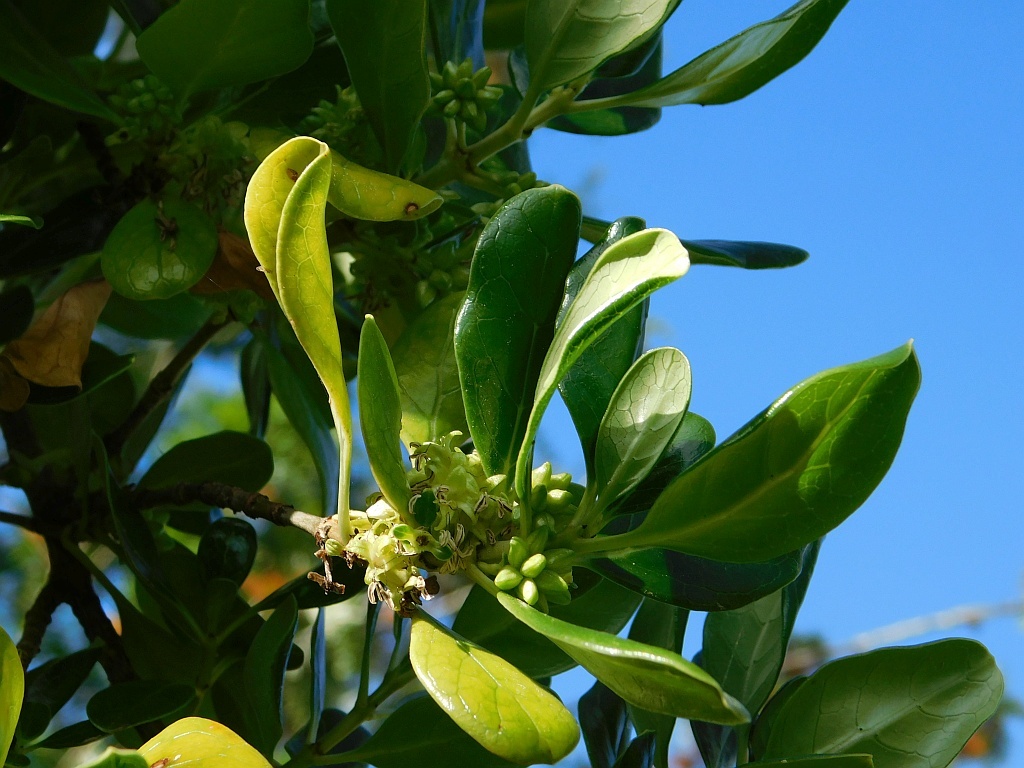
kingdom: Plantae
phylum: Tracheophyta
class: Magnoliopsida
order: Gentianales
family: Rubiaceae
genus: Coprosma
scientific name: Coprosma repens
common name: Tree bedstraw
